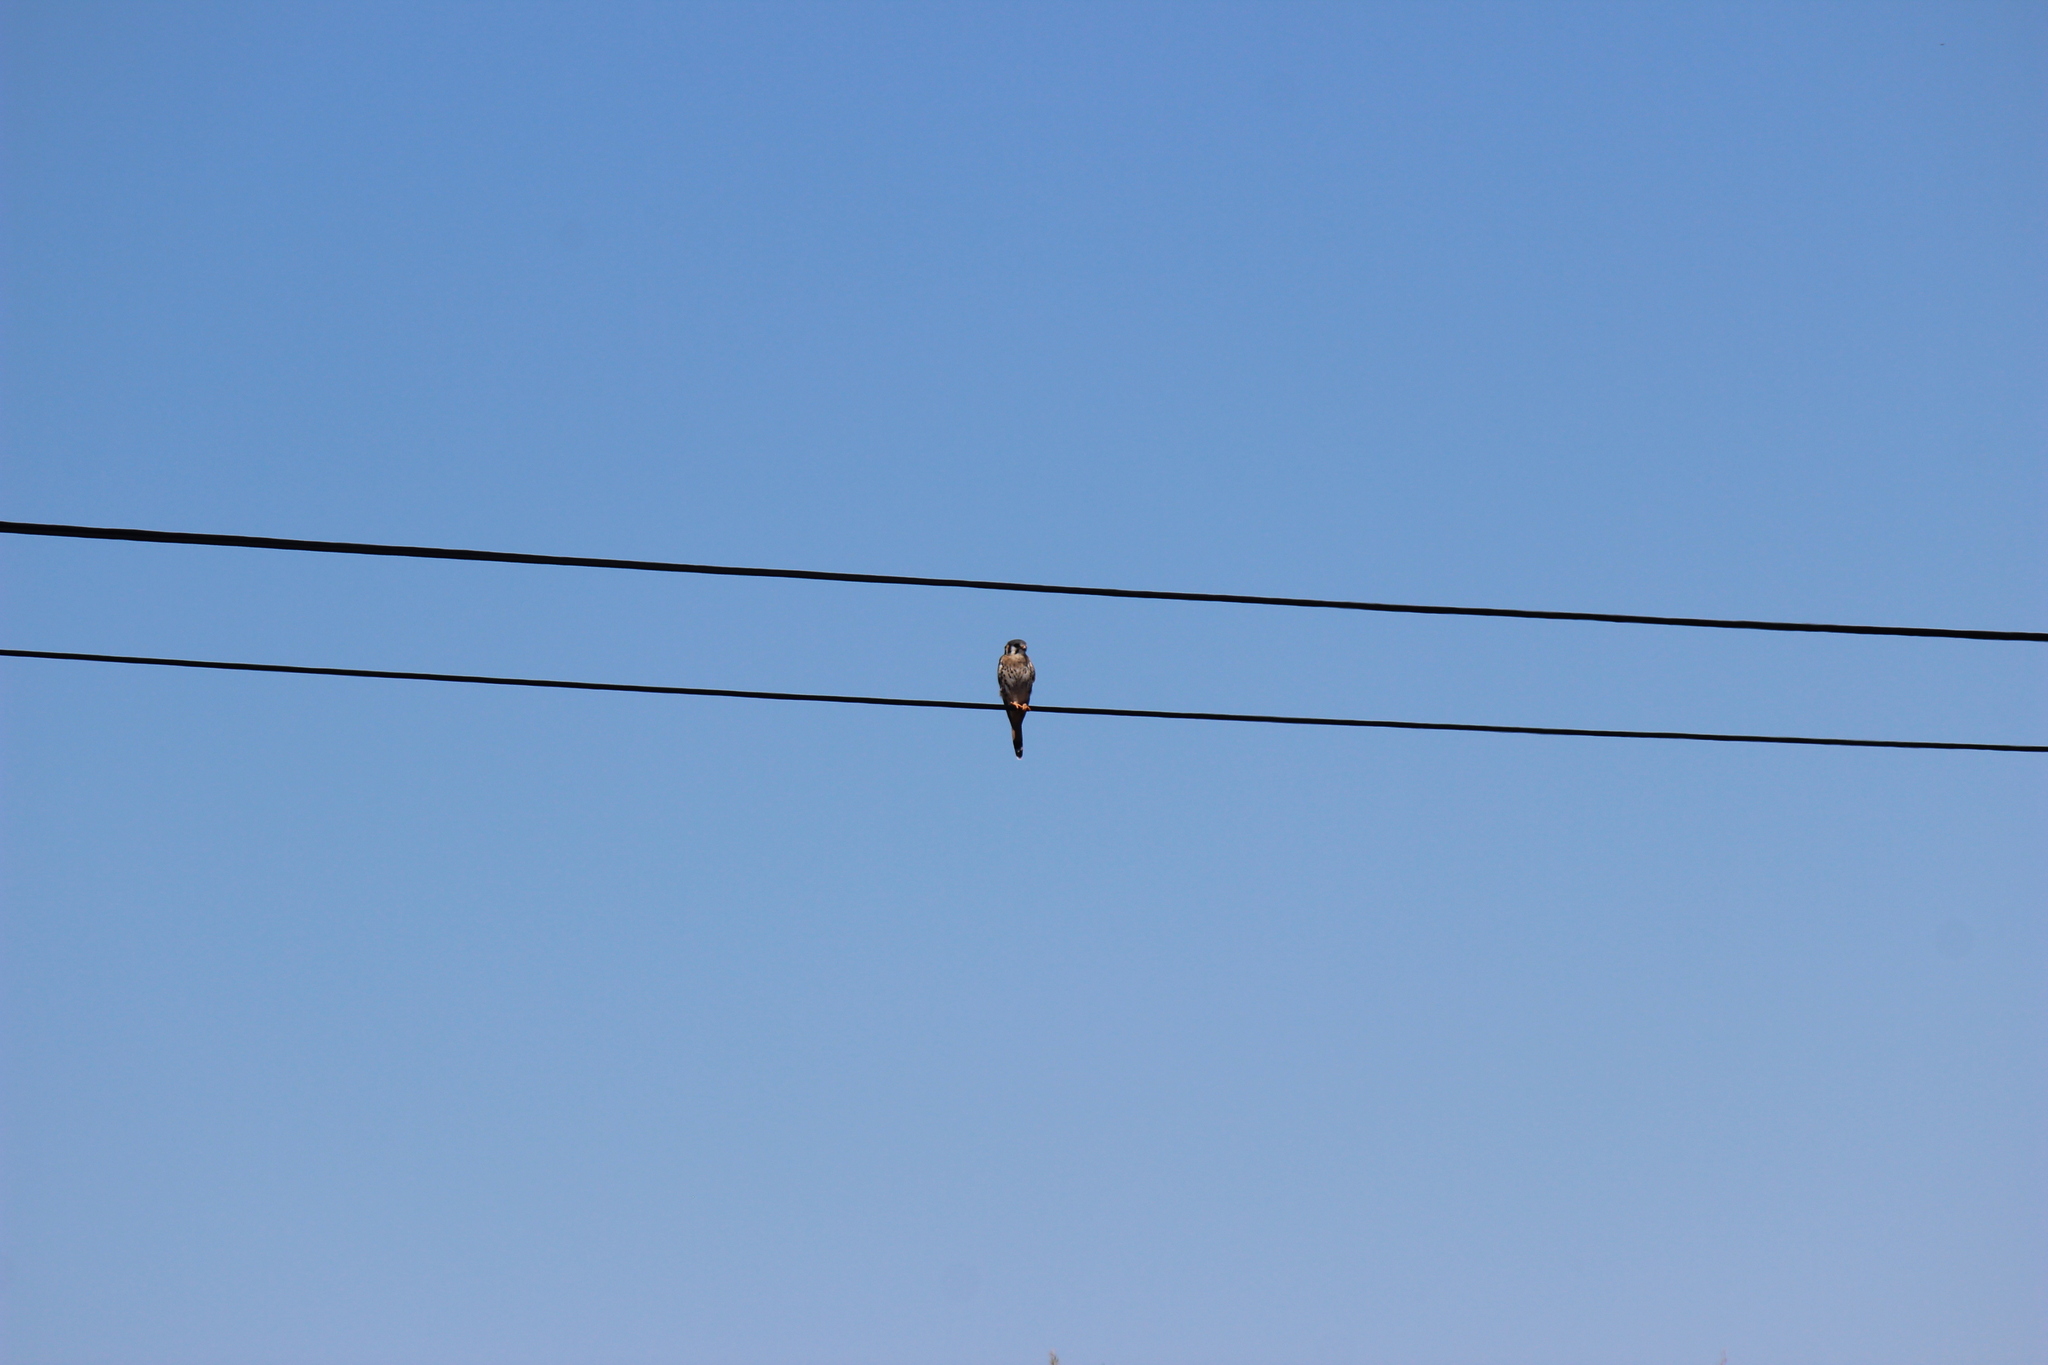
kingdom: Animalia
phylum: Chordata
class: Aves
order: Falconiformes
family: Falconidae
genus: Falco
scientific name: Falco sparverius
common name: American kestrel
